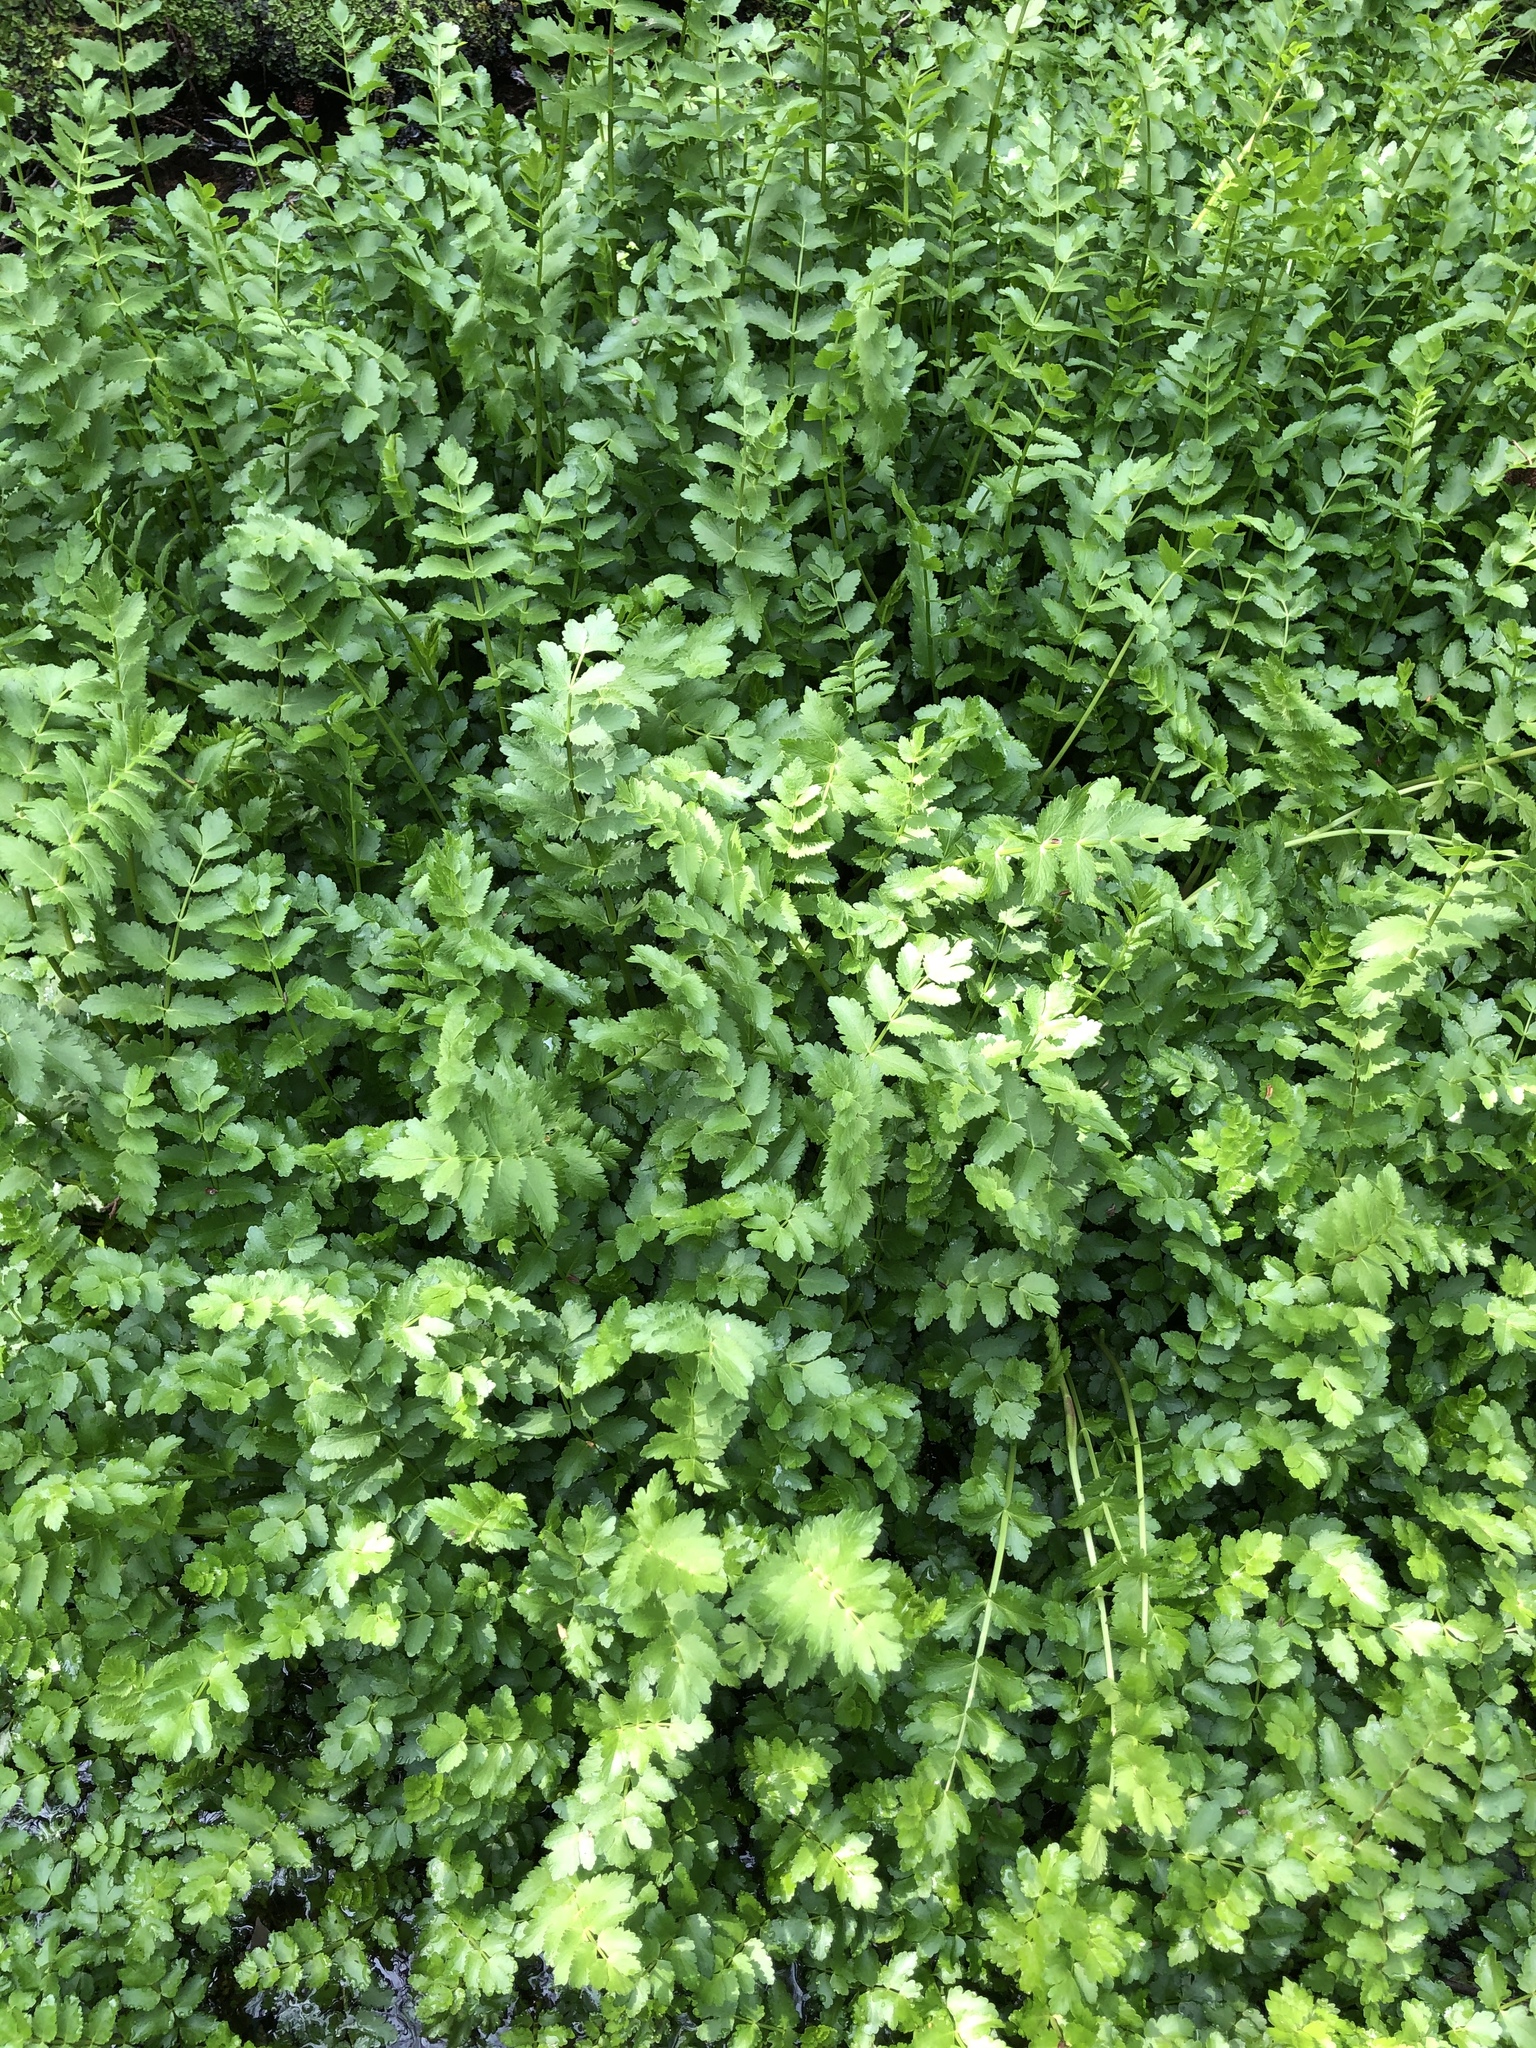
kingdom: Plantae
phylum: Tracheophyta
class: Magnoliopsida
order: Apiales
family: Apiaceae
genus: Helosciadium
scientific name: Helosciadium nodiflorum
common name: Fool's-watercress
